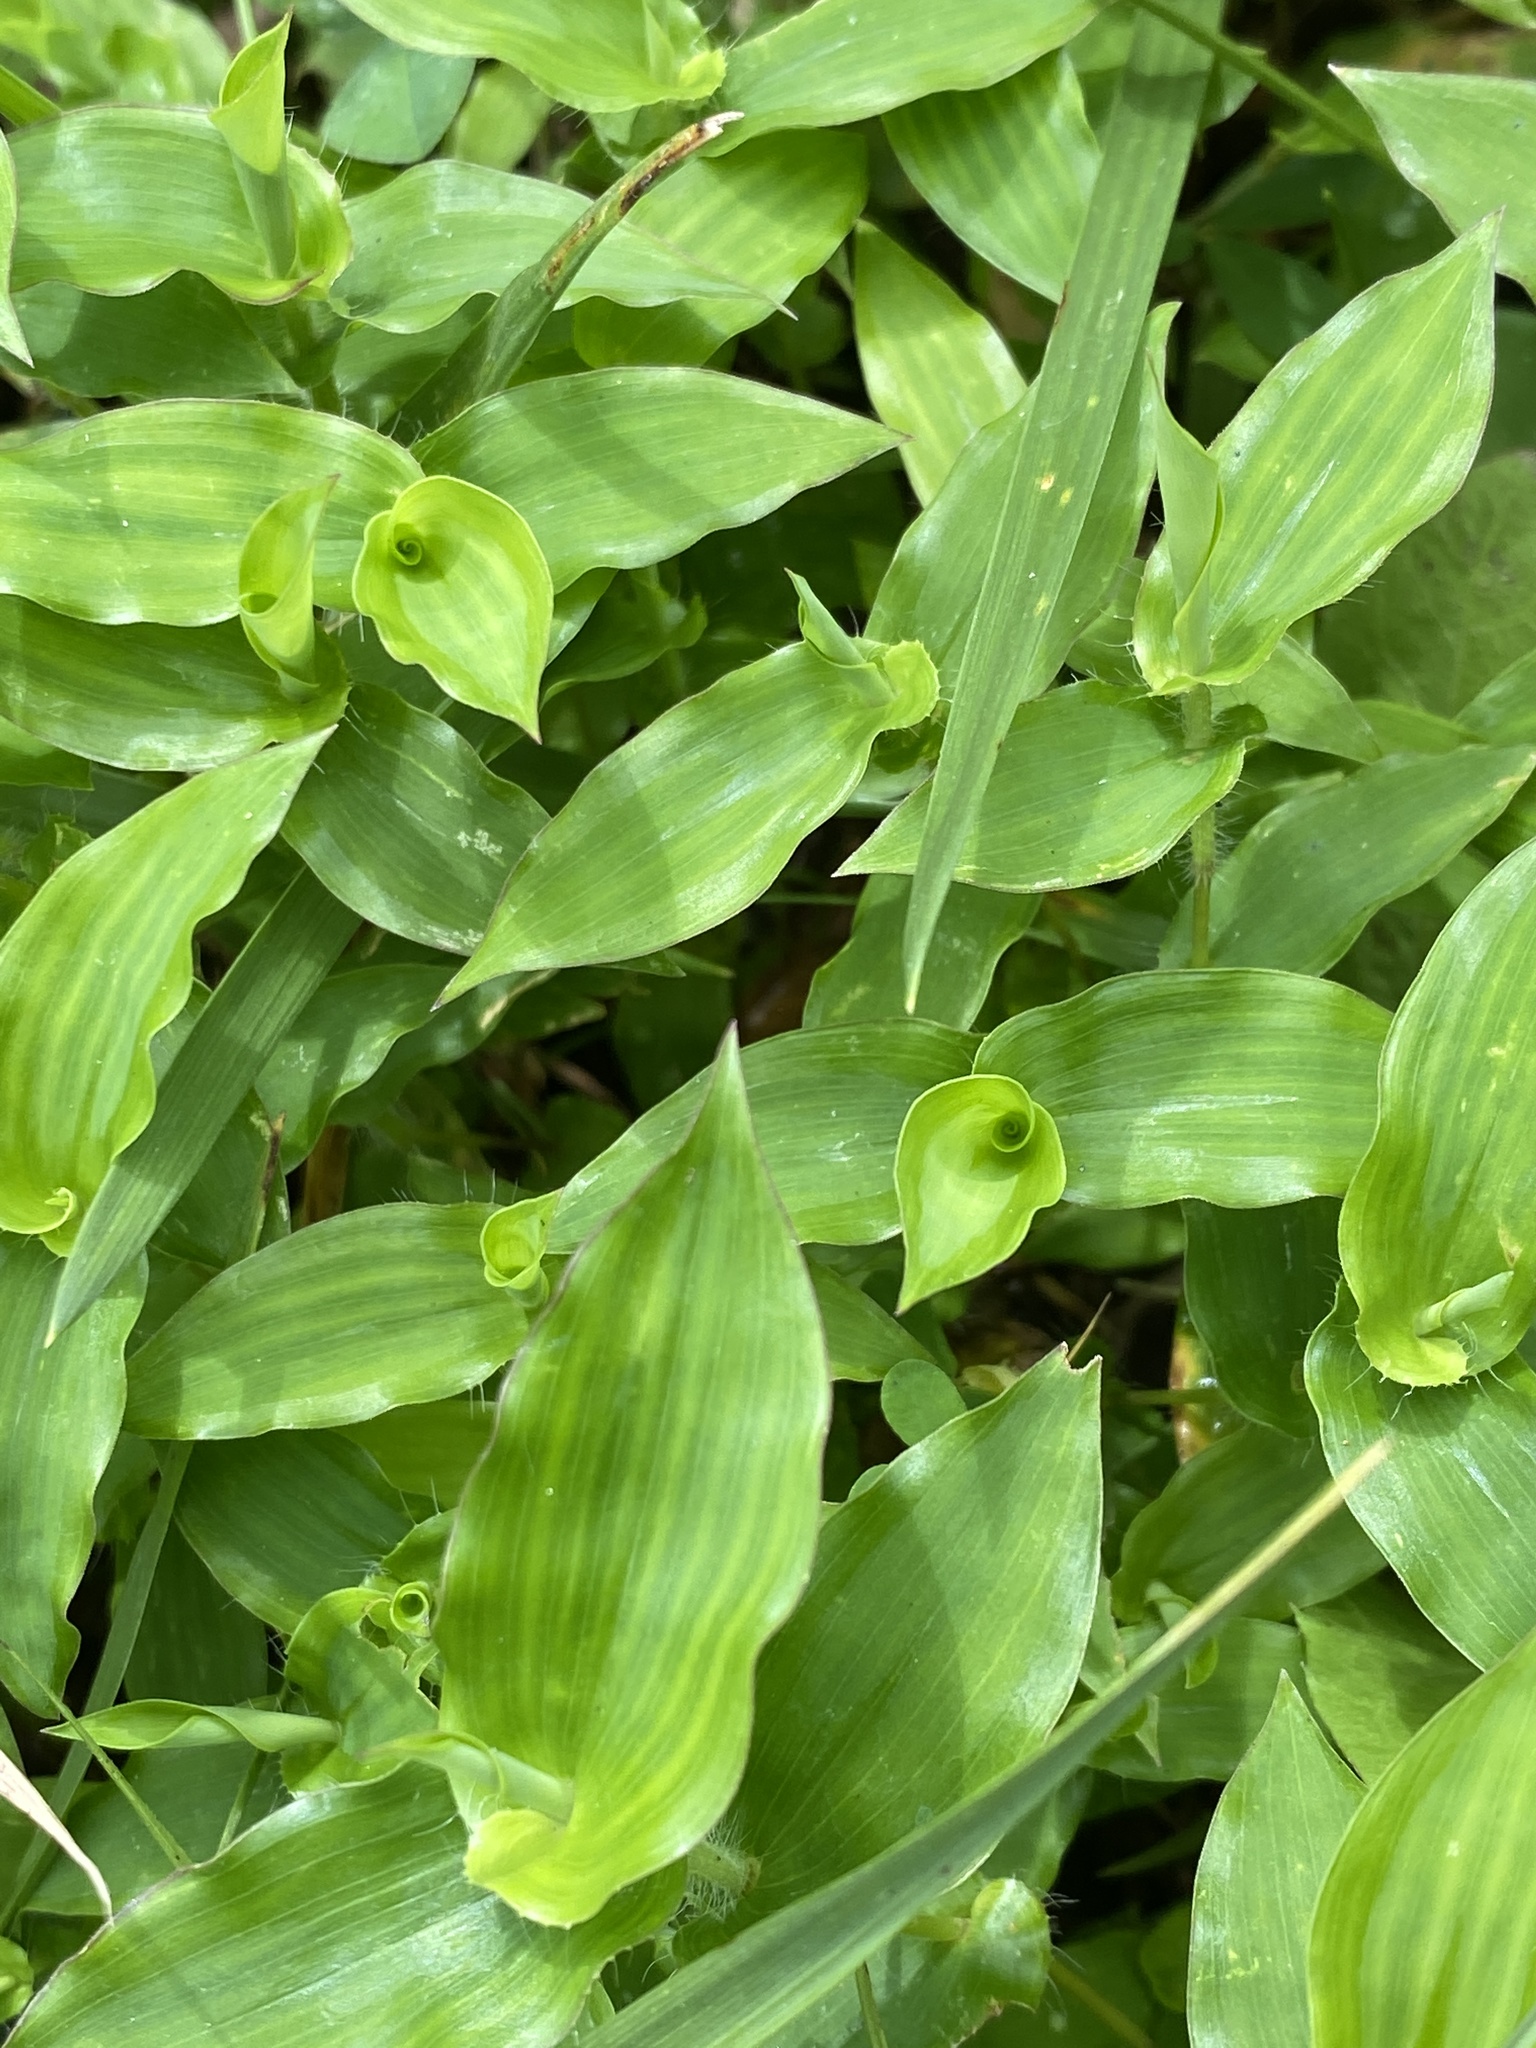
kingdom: Plantae
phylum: Tracheophyta
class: Liliopsida
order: Poales
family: Poaceae
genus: Arthraxon
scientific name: Arthraxon hispidus
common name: Small carpgrass
